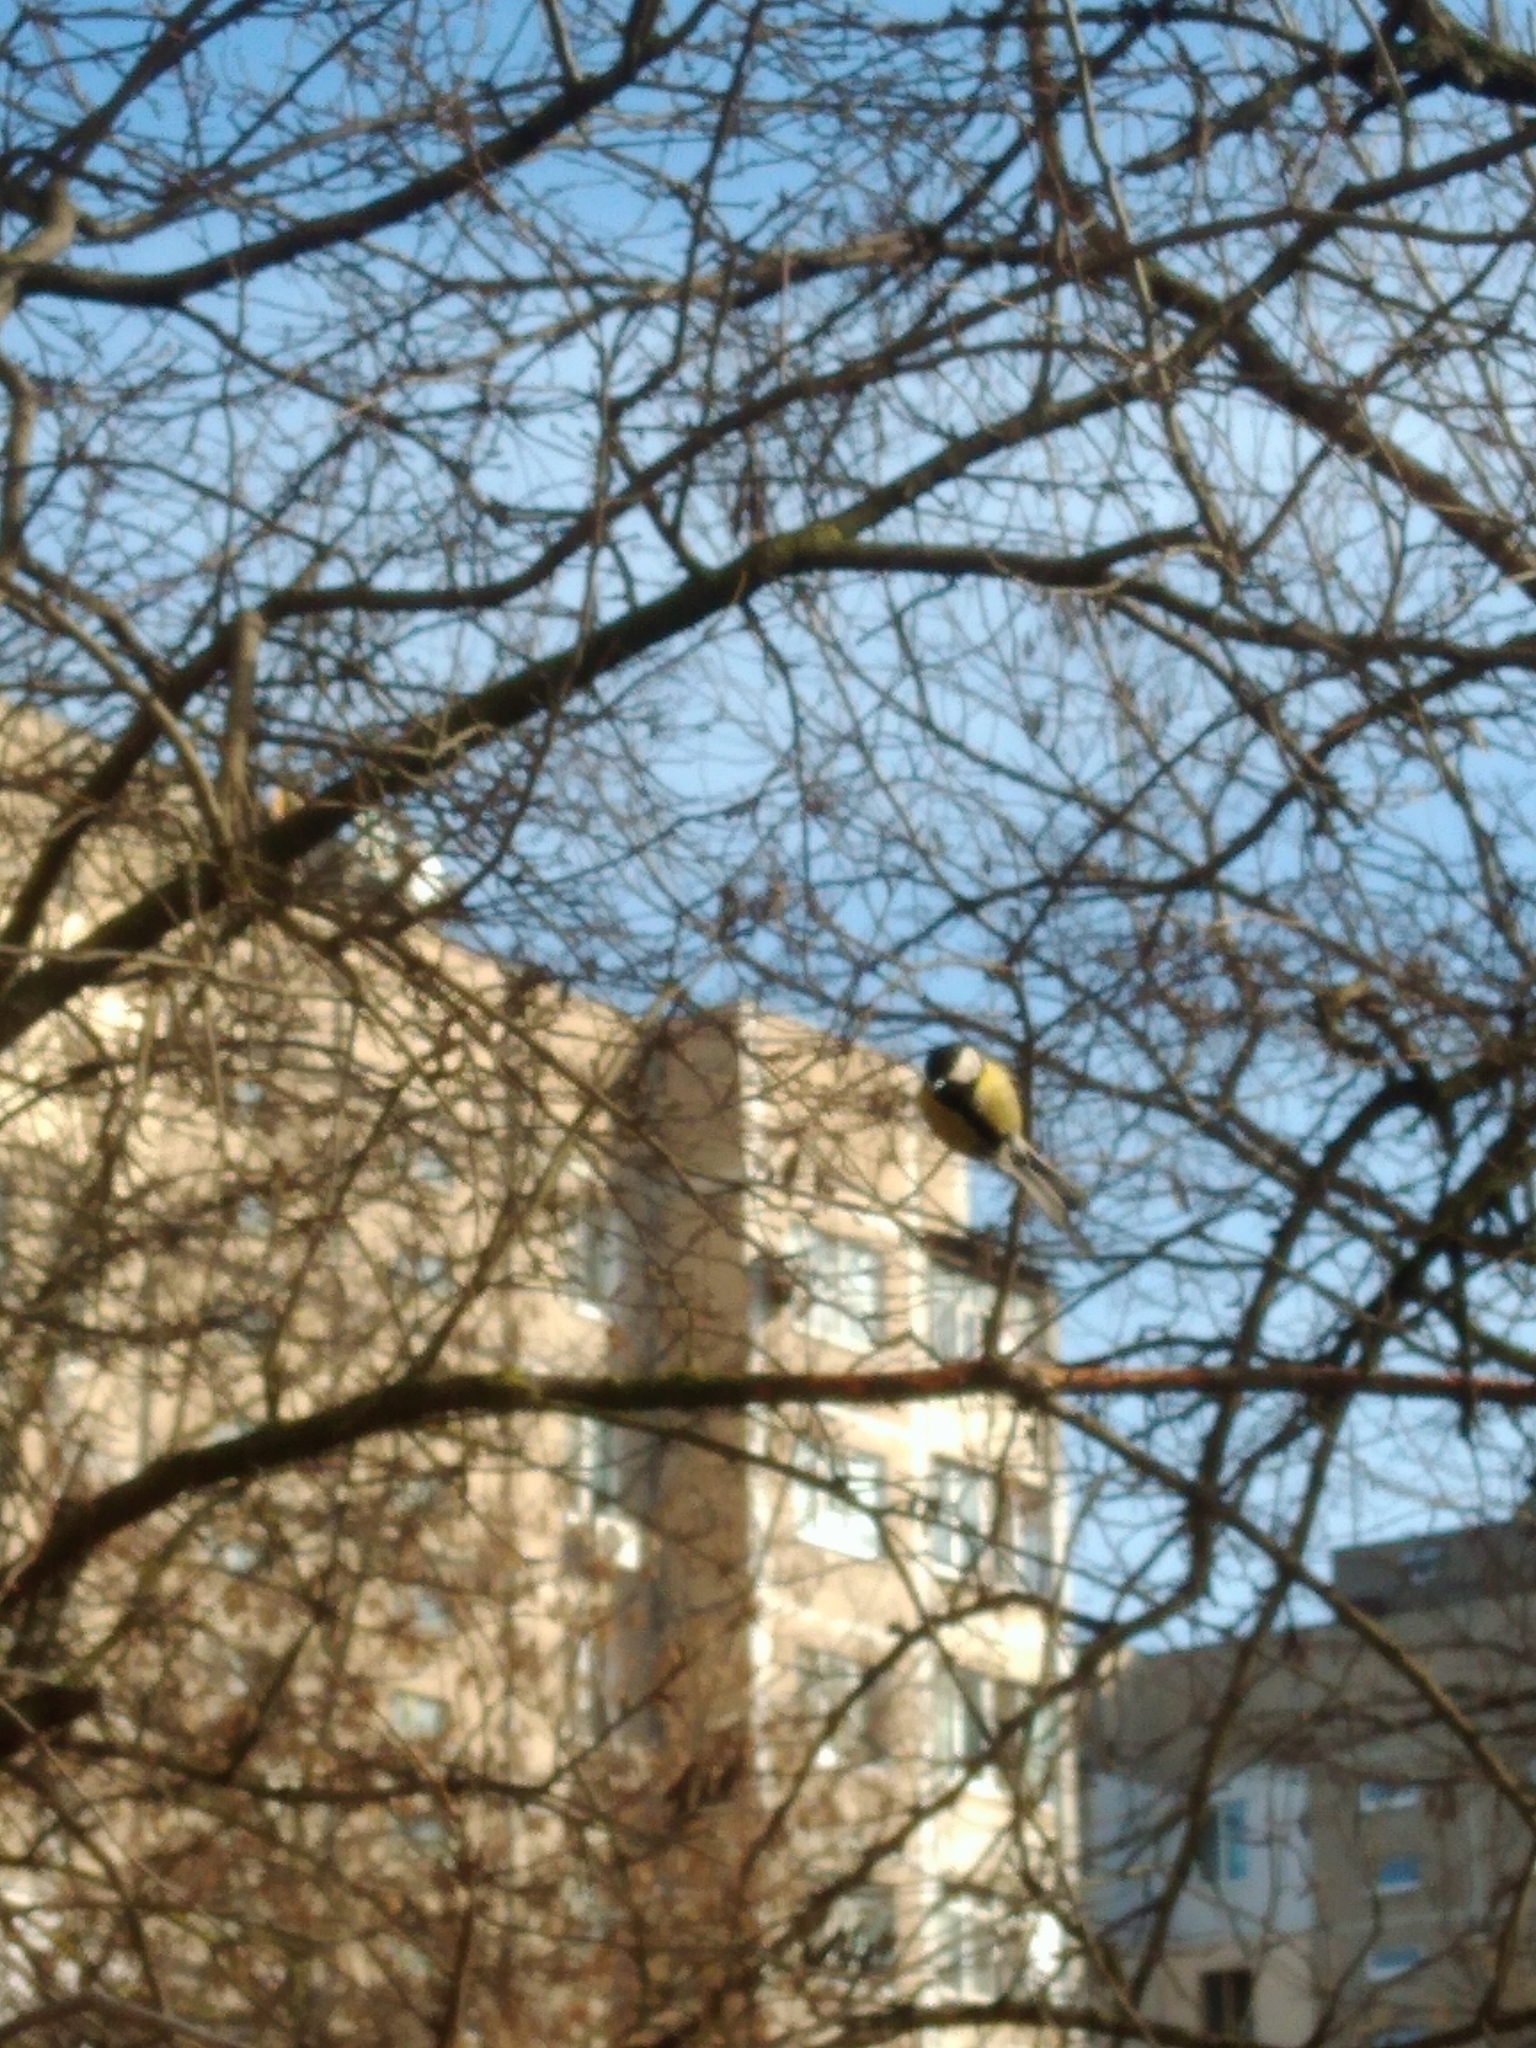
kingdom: Animalia
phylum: Chordata
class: Aves
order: Passeriformes
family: Paridae
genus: Parus
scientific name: Parus major
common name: Great tit
